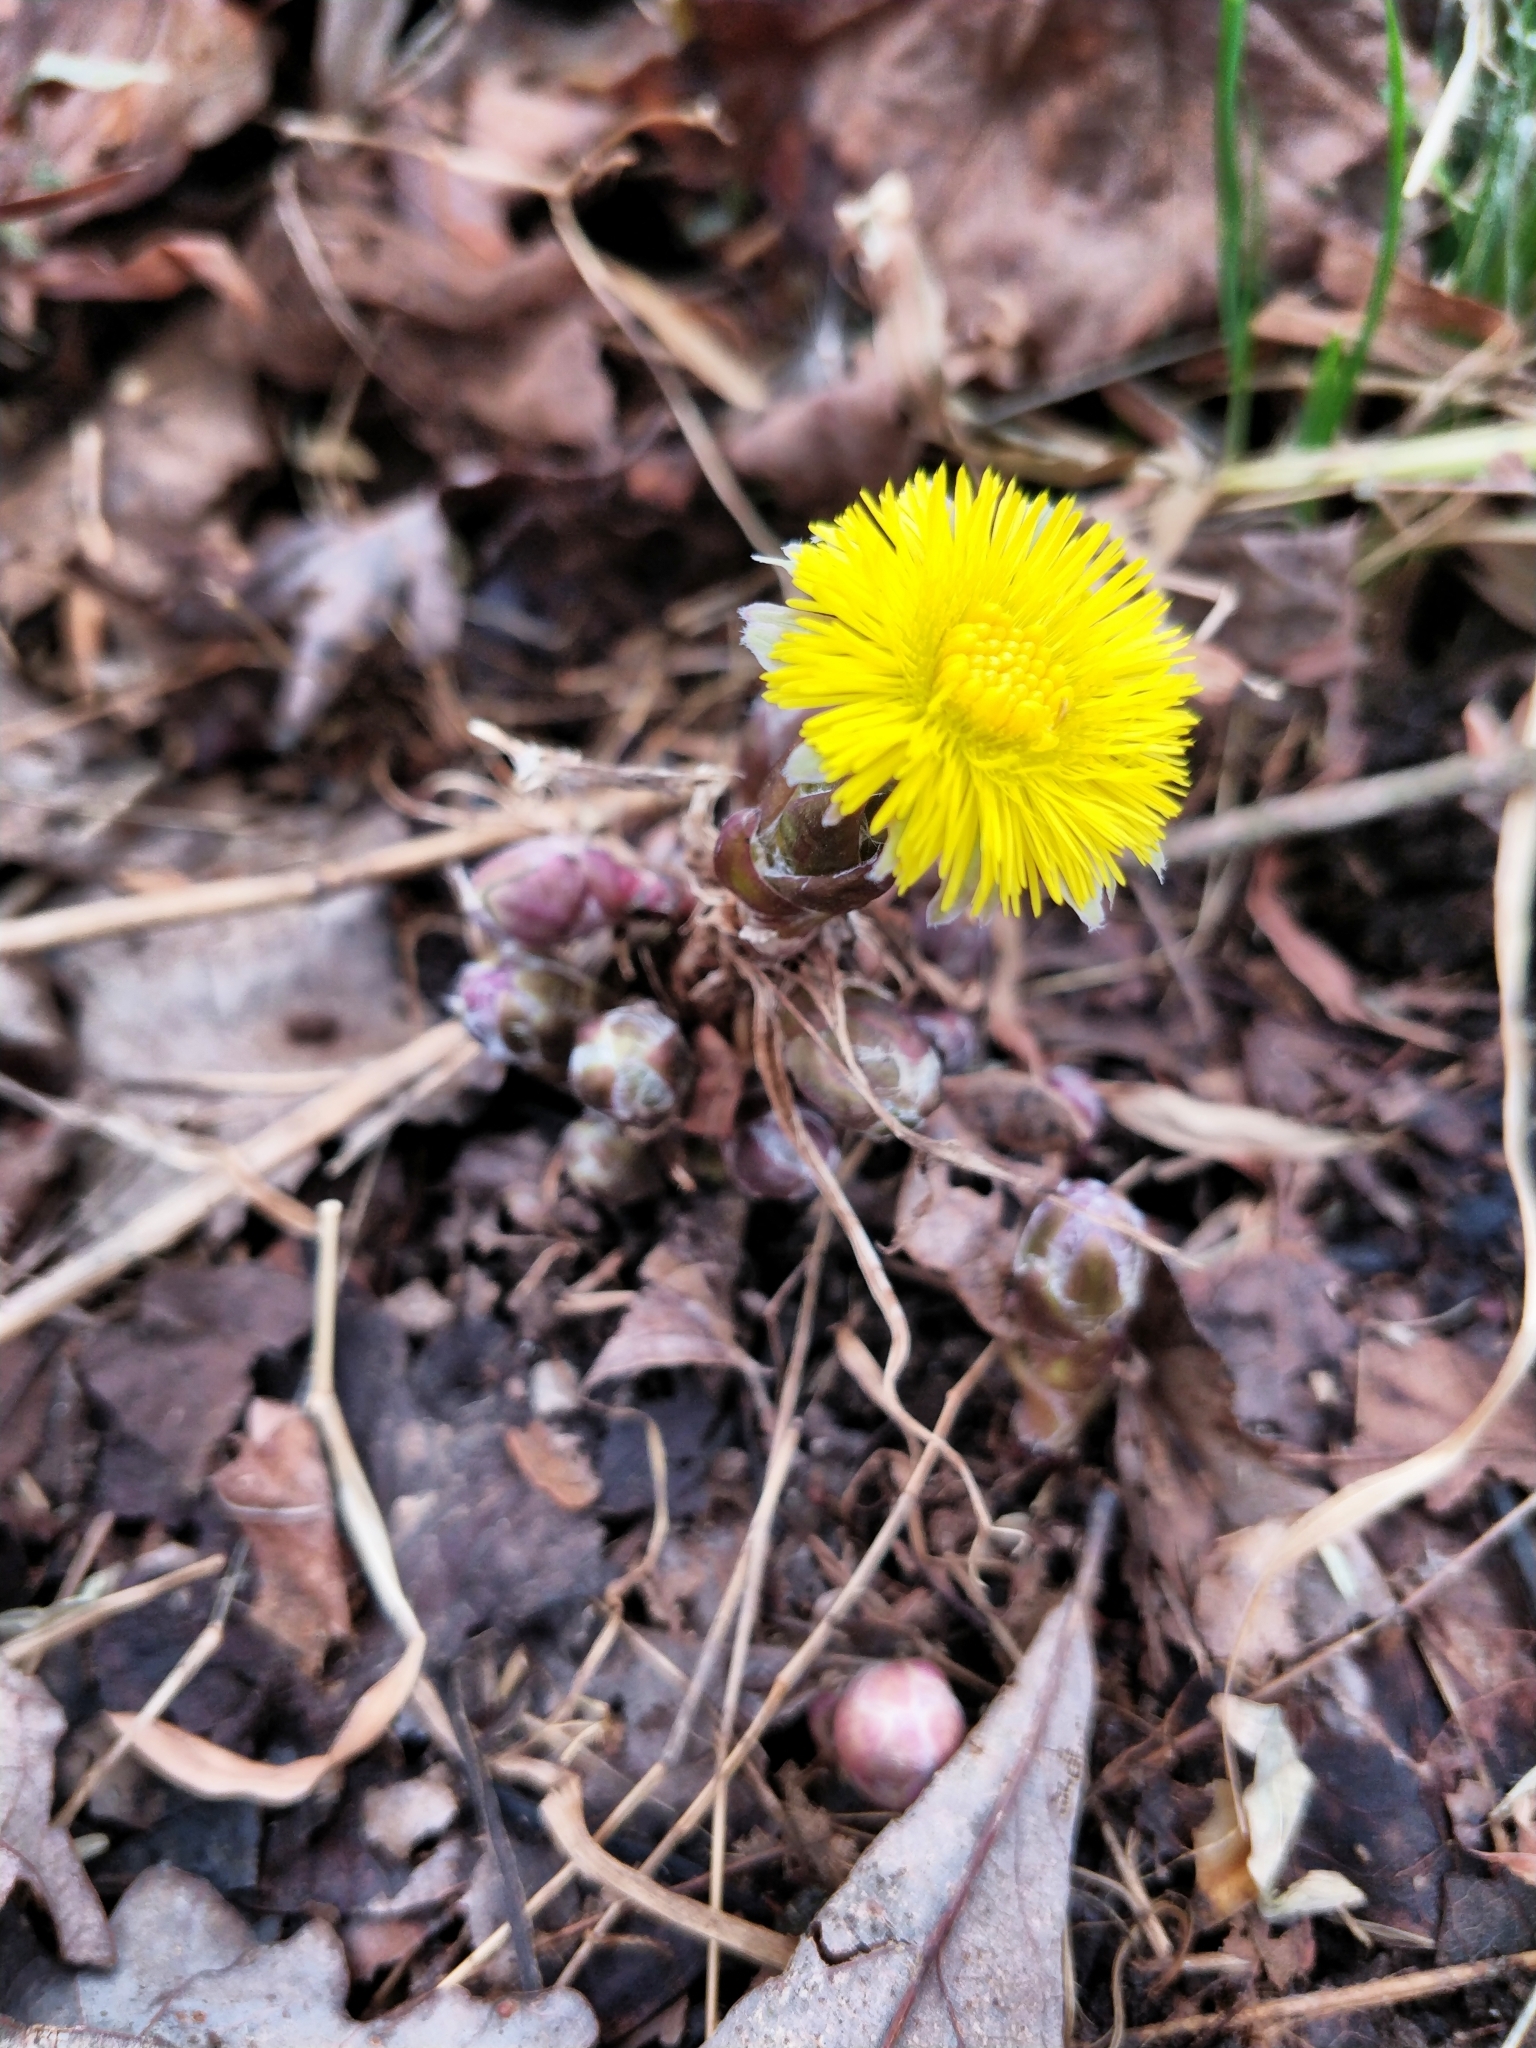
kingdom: Plantae
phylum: Tracheophyta
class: Magnoliopsida
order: Asterales
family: Asteraceae
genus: Tussilago
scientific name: Tussilago farfara
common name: Coltsfoot
